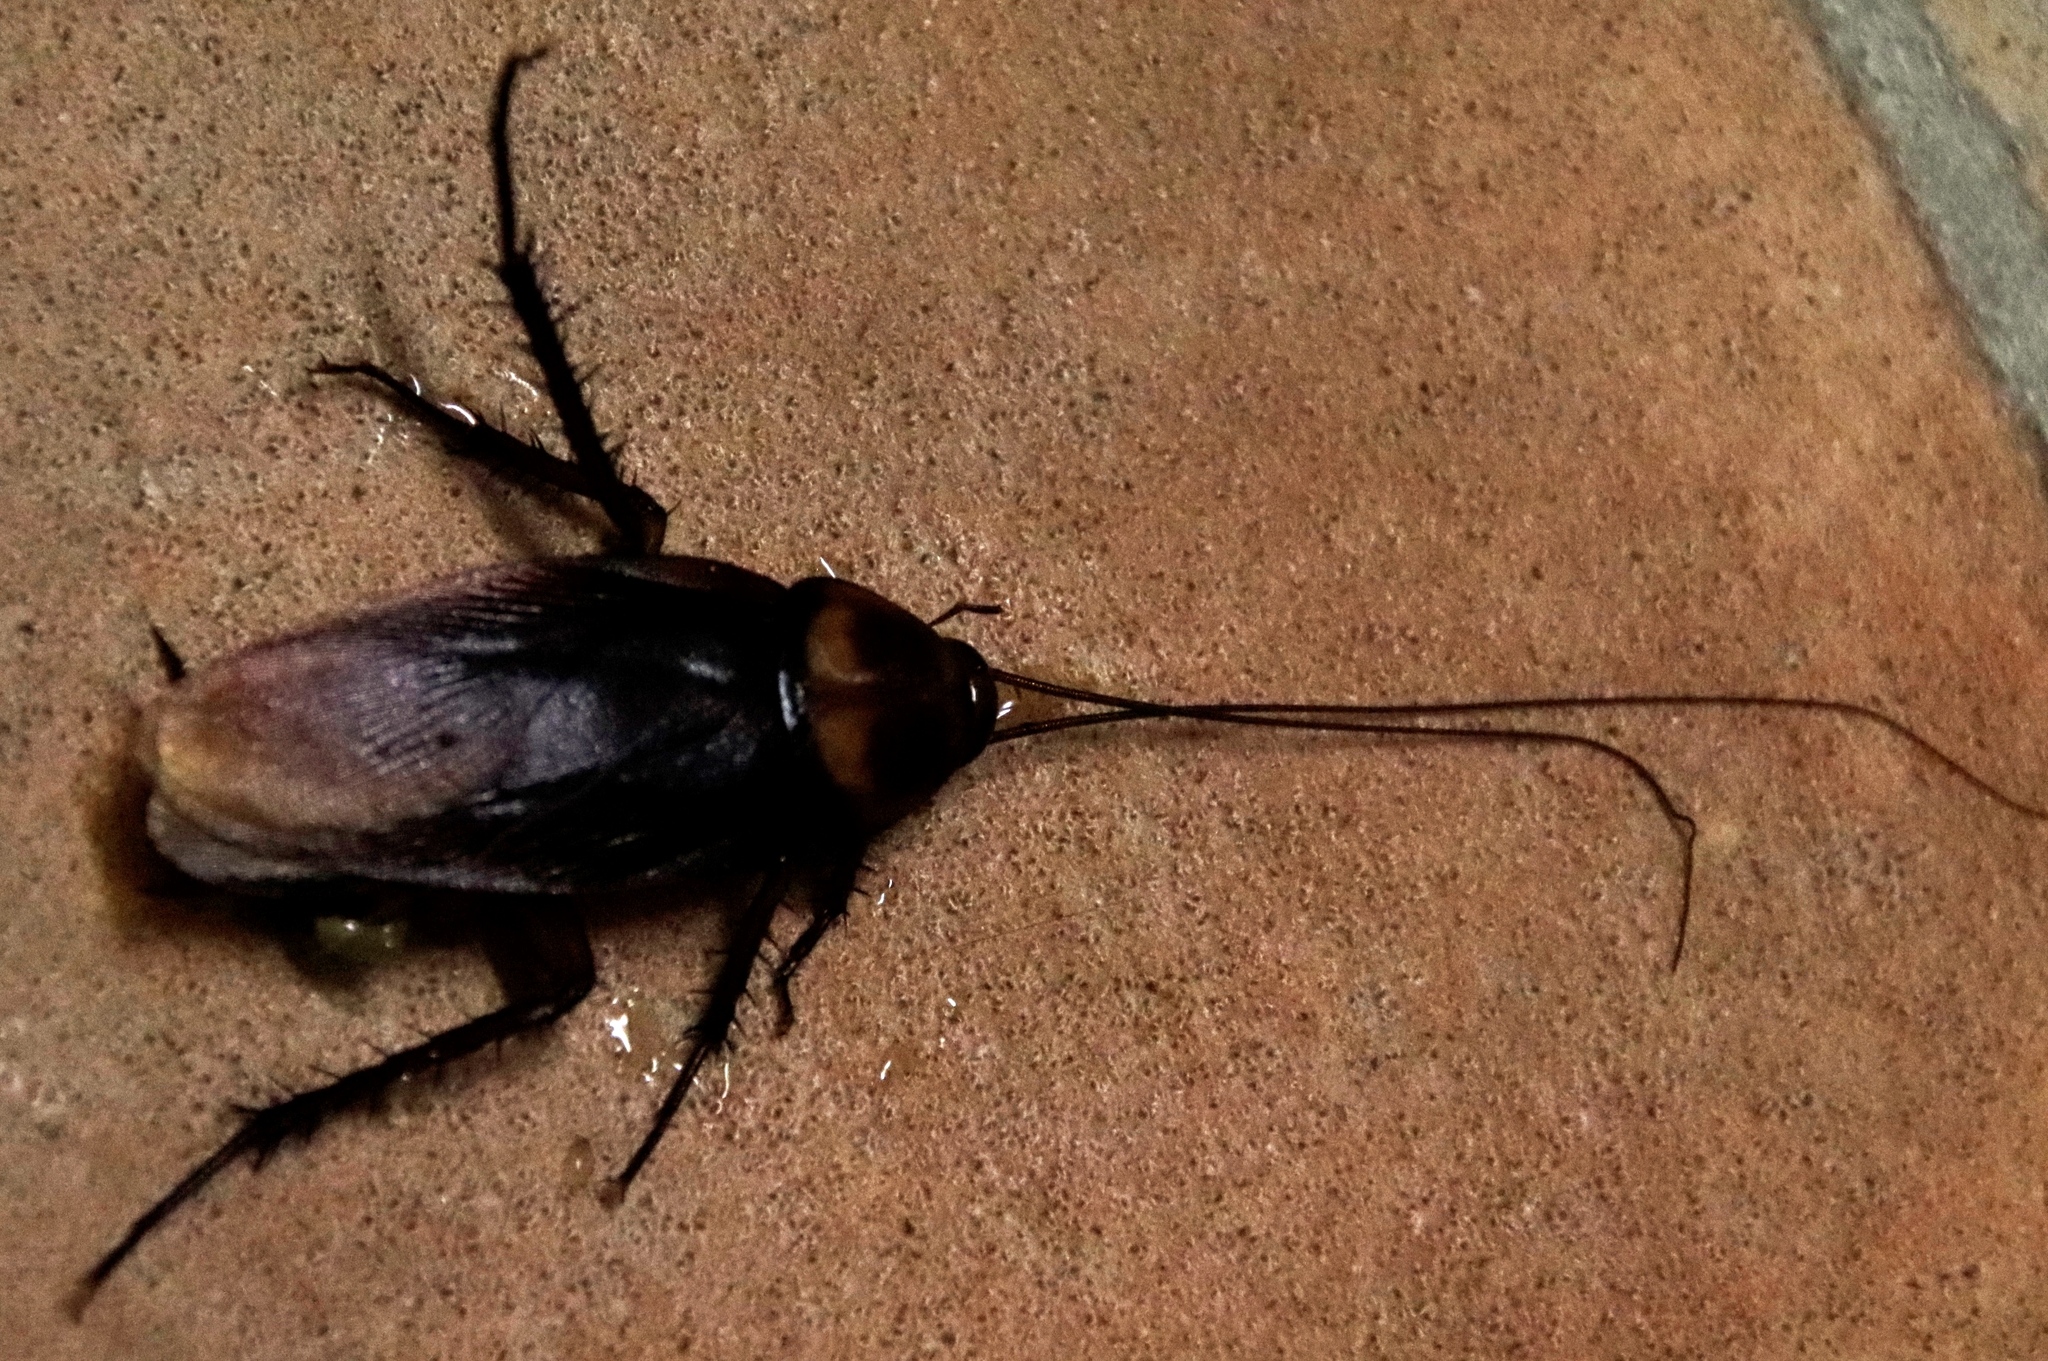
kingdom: Animalia
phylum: Arthropoda
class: Insecta
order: Blattodea
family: Blattidae
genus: Periplaneta
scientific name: Periplaneta americana
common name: American cockroach
